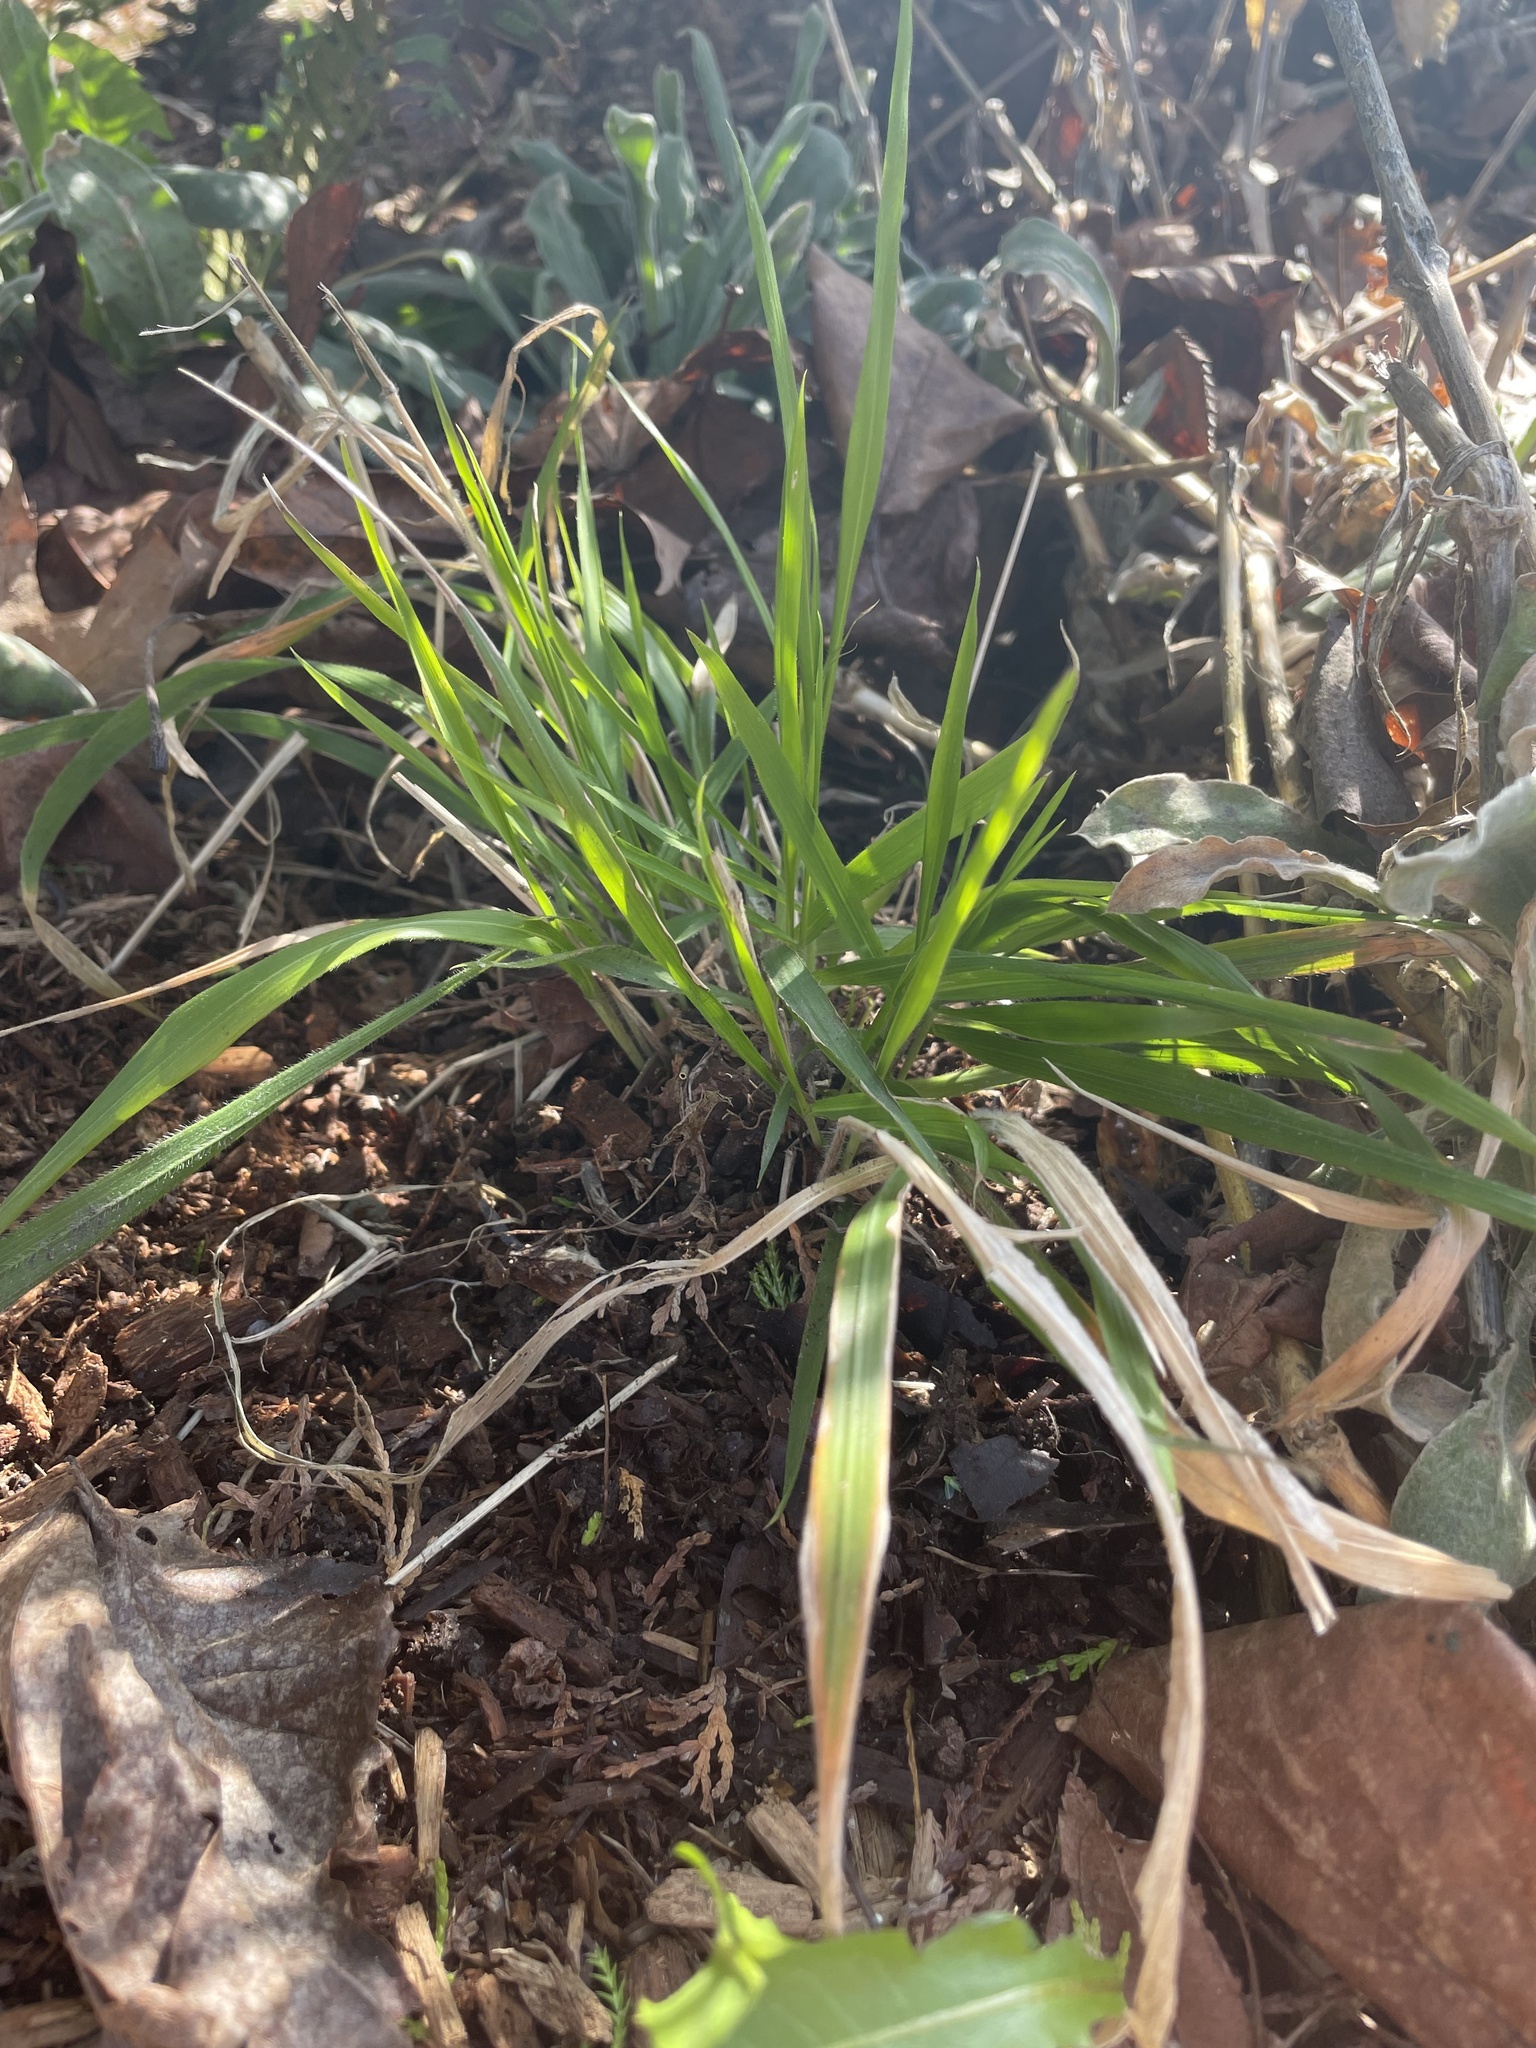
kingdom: Plantae
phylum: Tracheophyta
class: Liliopsida
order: Poales
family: Poaceae
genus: Brachypodium
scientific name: Brachypodium sylvaticum
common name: False-brome
